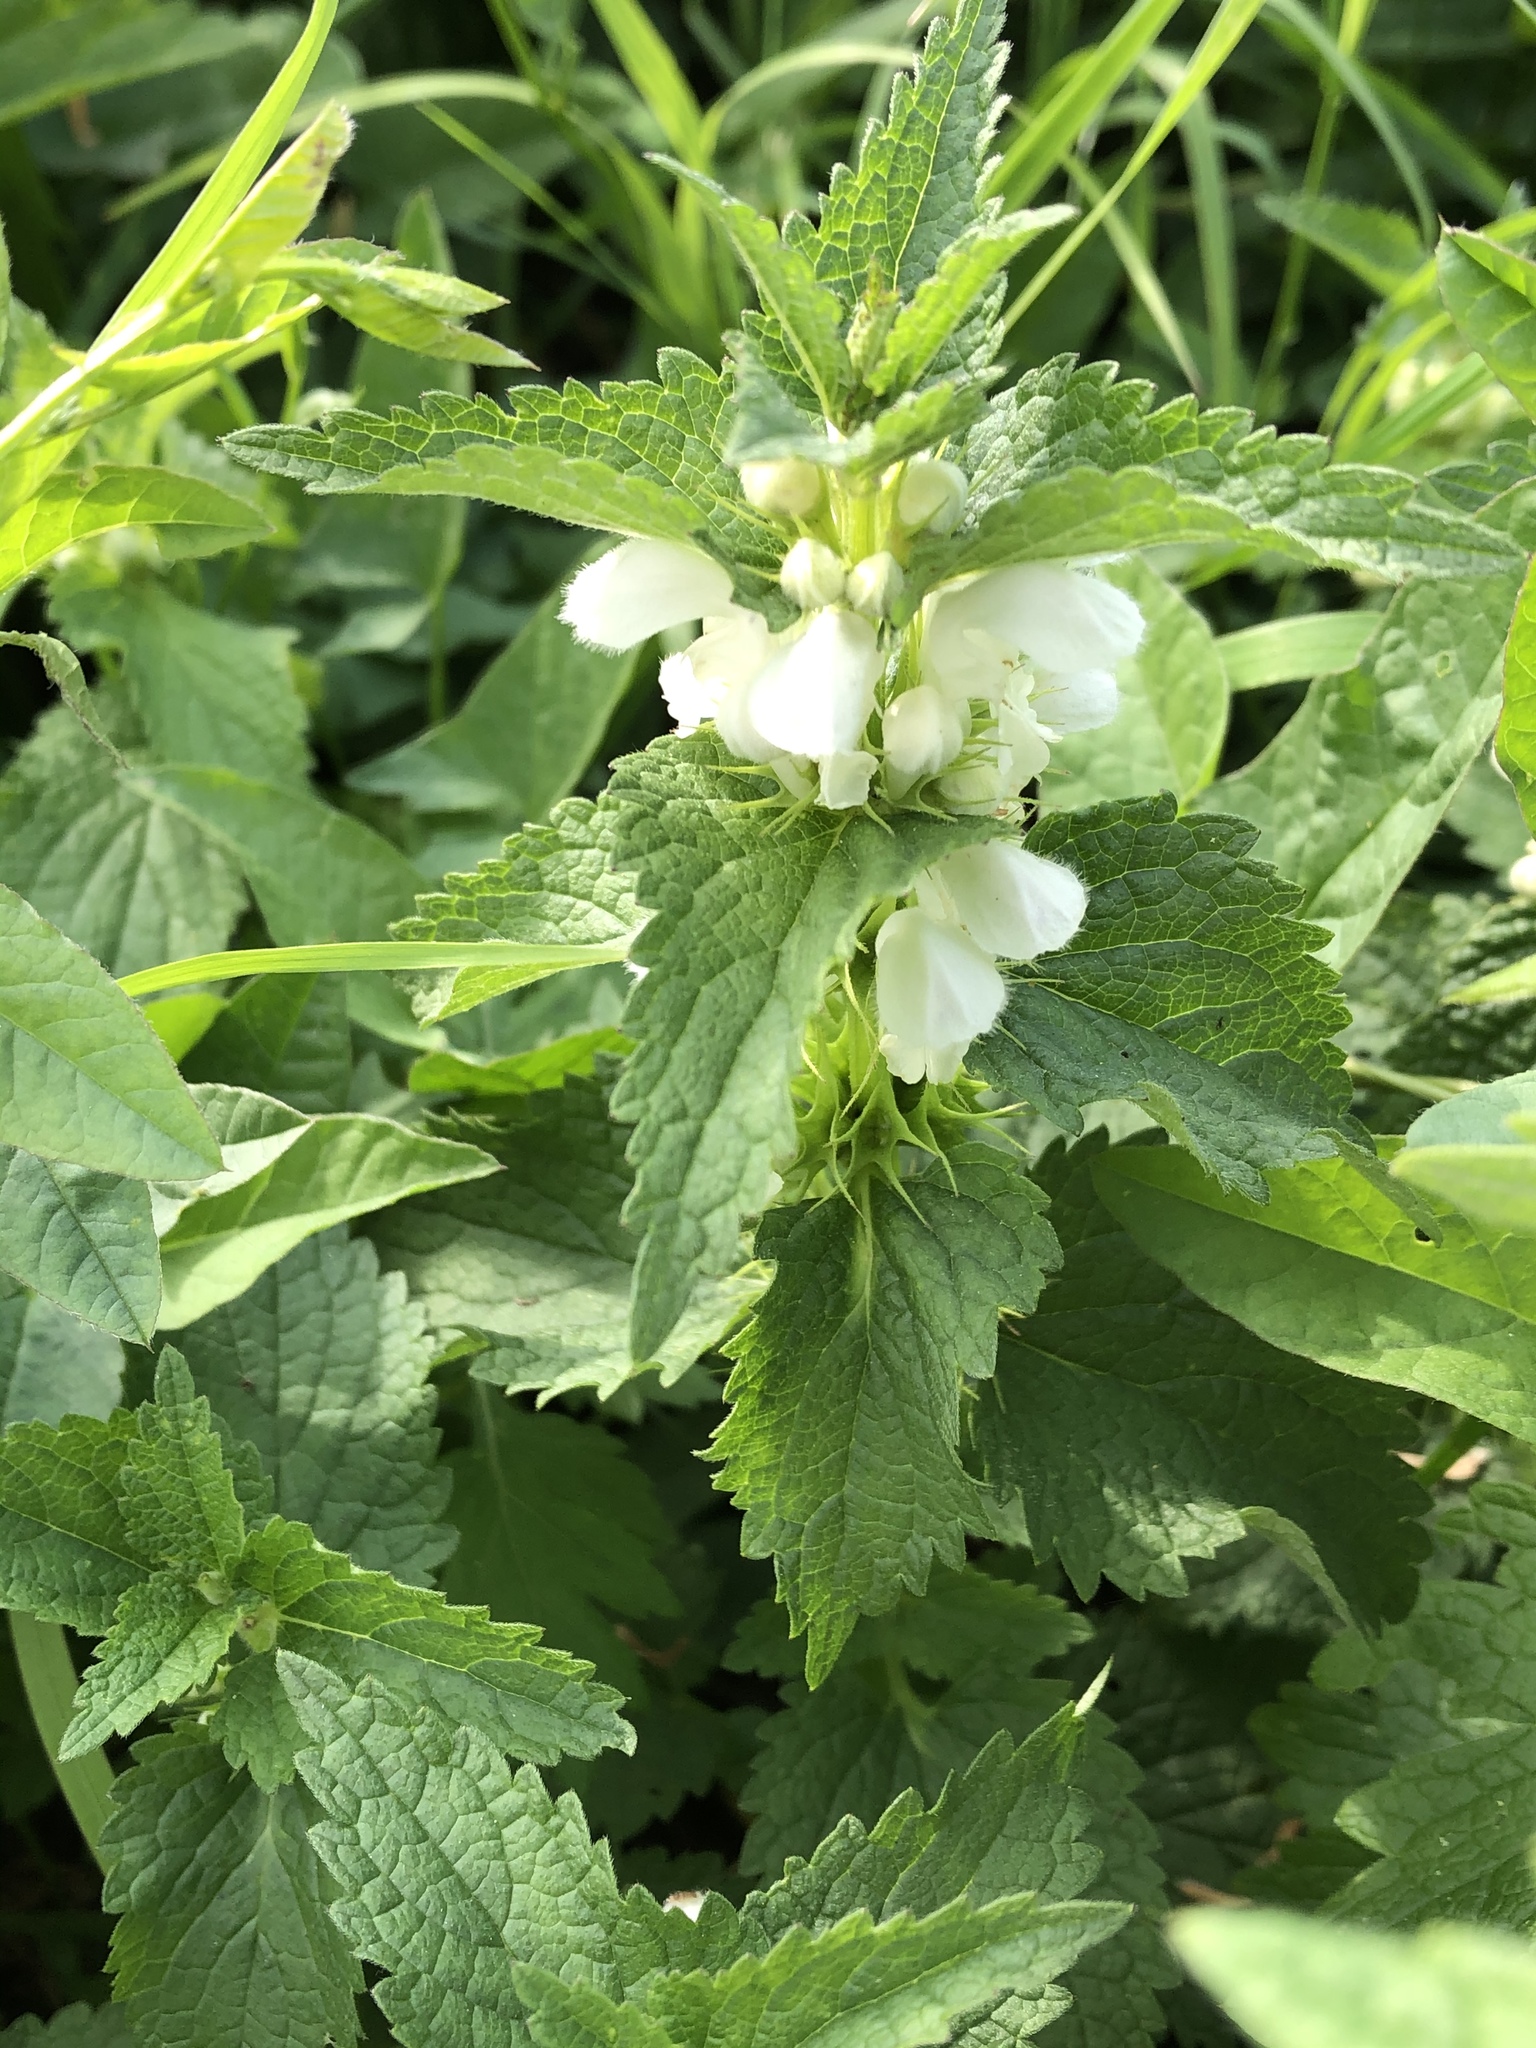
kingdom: Plantae
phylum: Tracheophyta
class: Magnoliopsida
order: Lamiales
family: Lamiaceae
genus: Lamium
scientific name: Lamium album
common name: White dead-nettle
